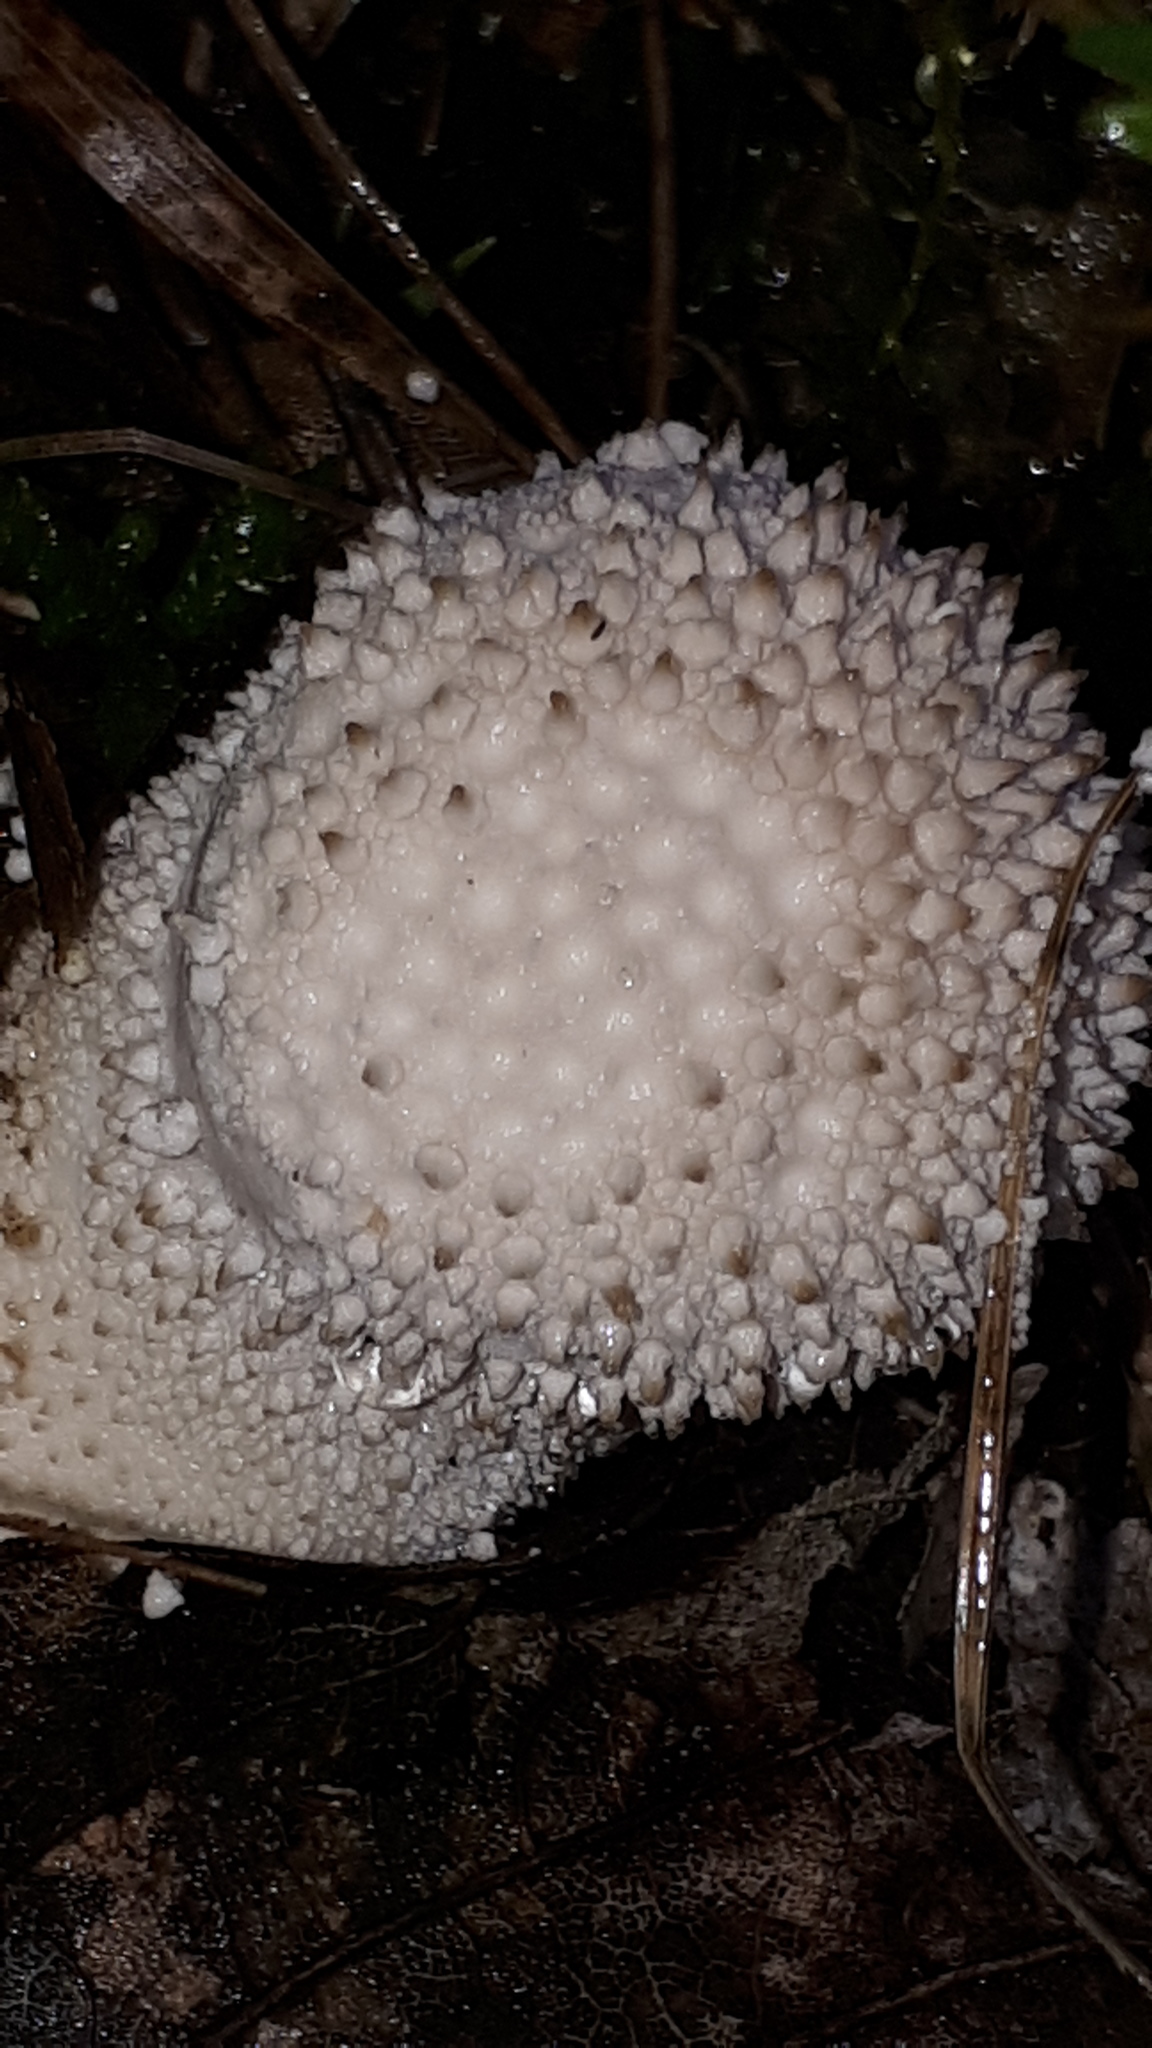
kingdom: Fungi
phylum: Basidiomycota
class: Agaricomycetes
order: Agaricales
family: Lycoperdaceae
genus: Lycoperdon
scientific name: Lycoperdon perlatum
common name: Common puffball
